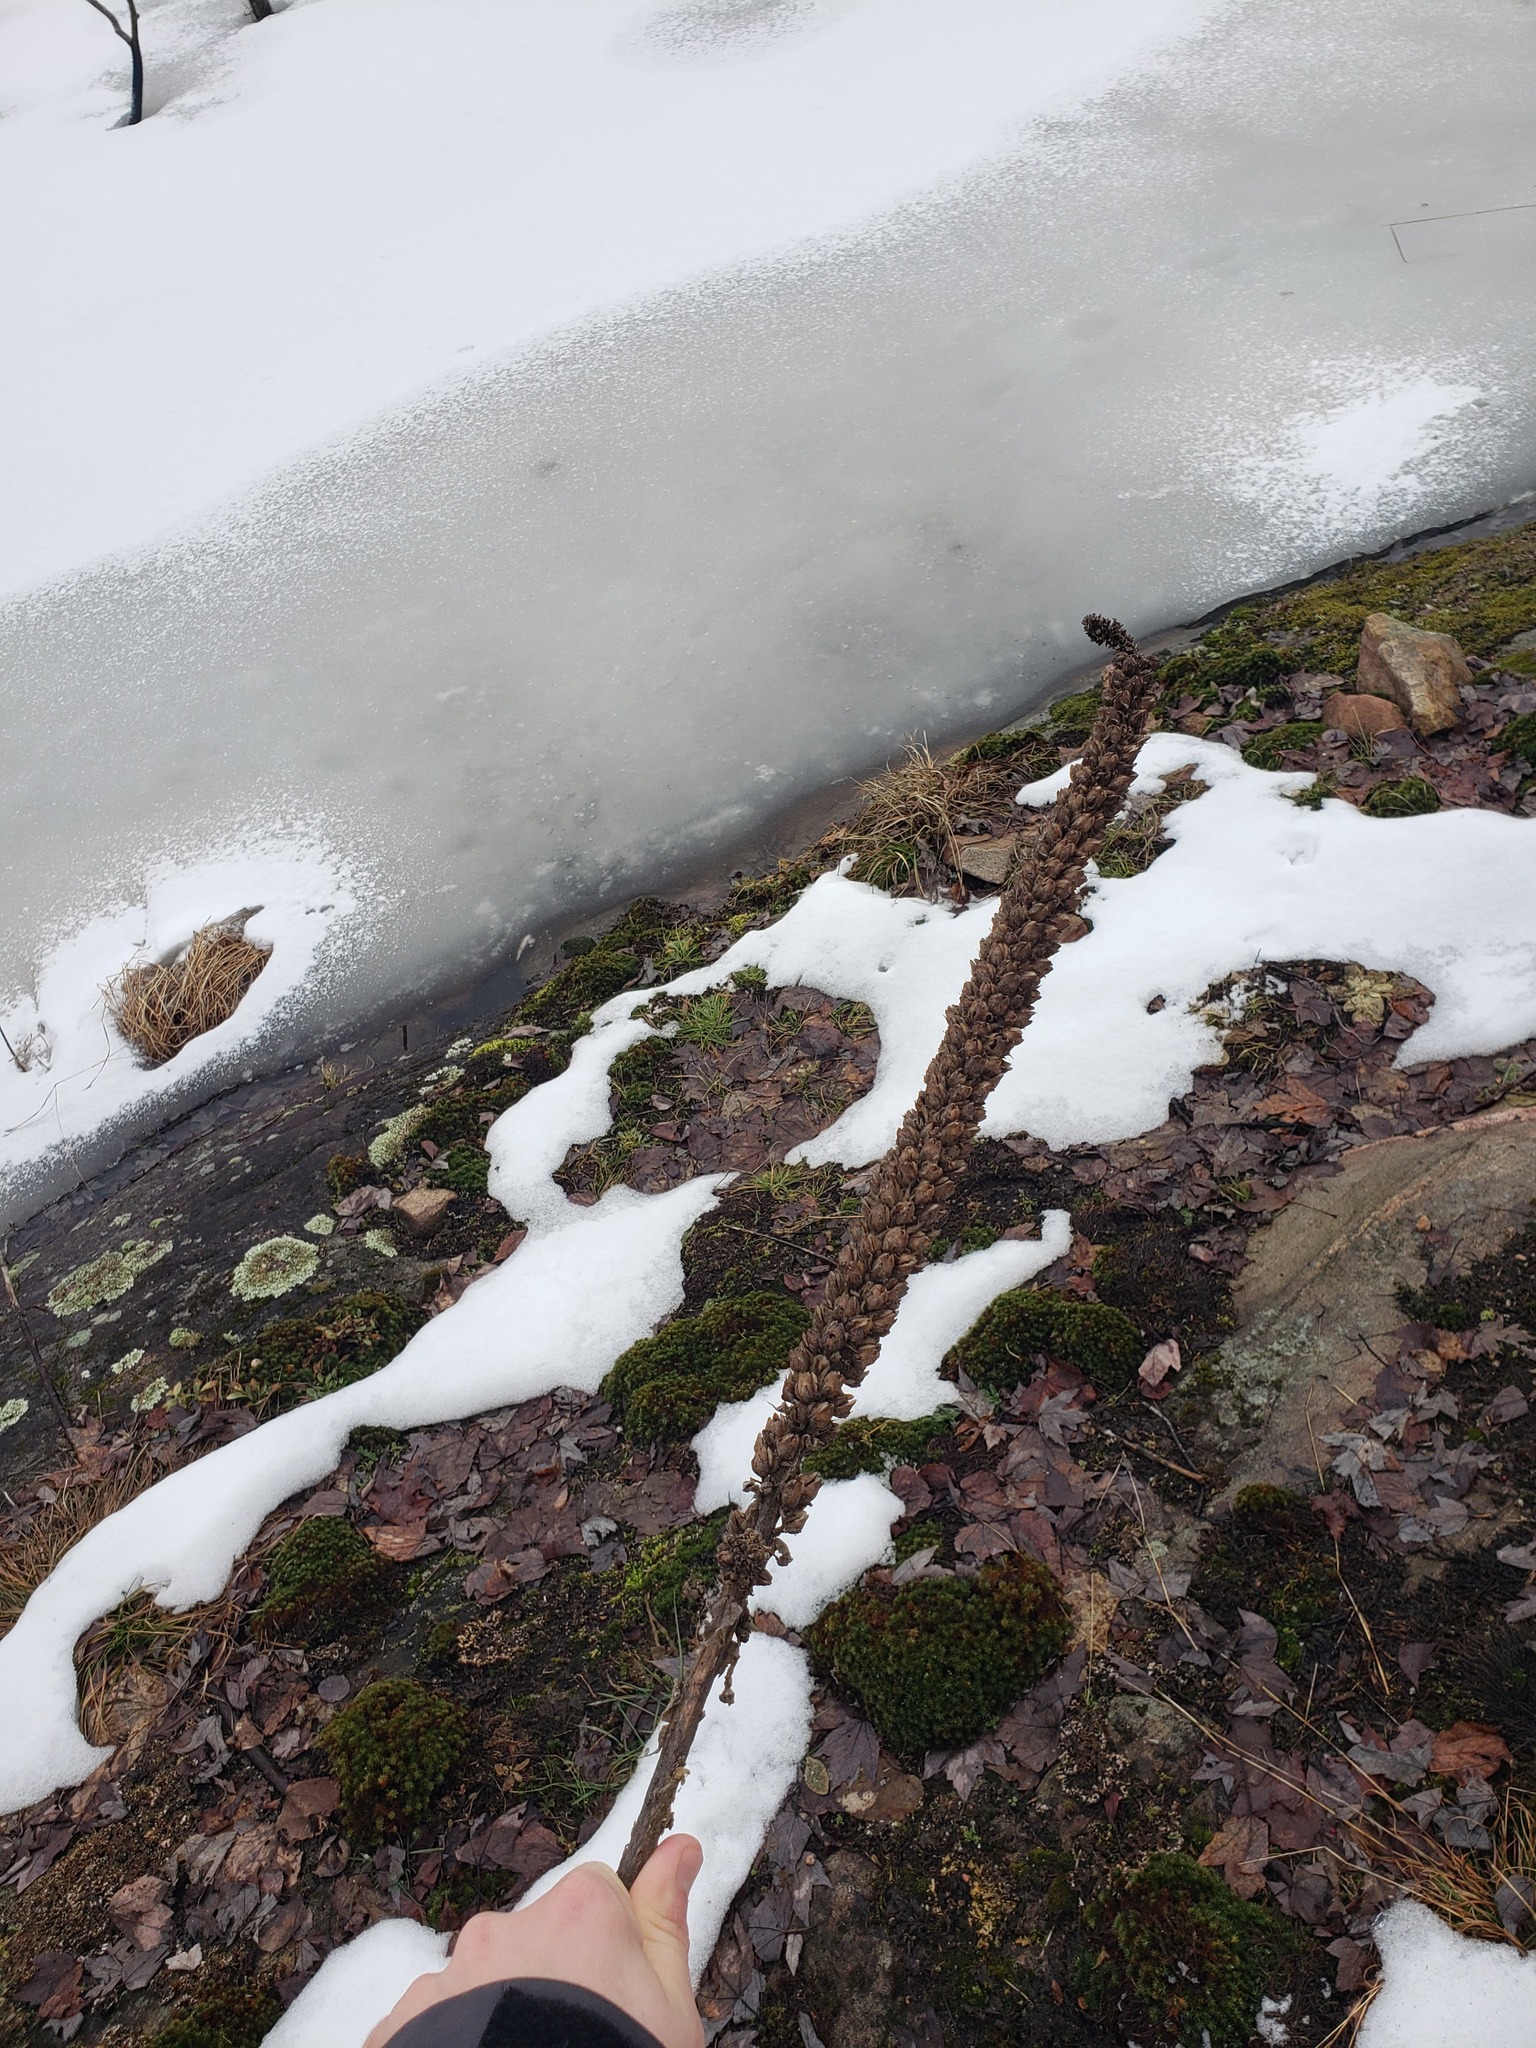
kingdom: Plantae
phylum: Tracheophyta
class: Magnoliopsida
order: Lamiales
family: Scrophulariaceae
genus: Verbascum
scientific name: Verbascum thapsus
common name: Common mullein
